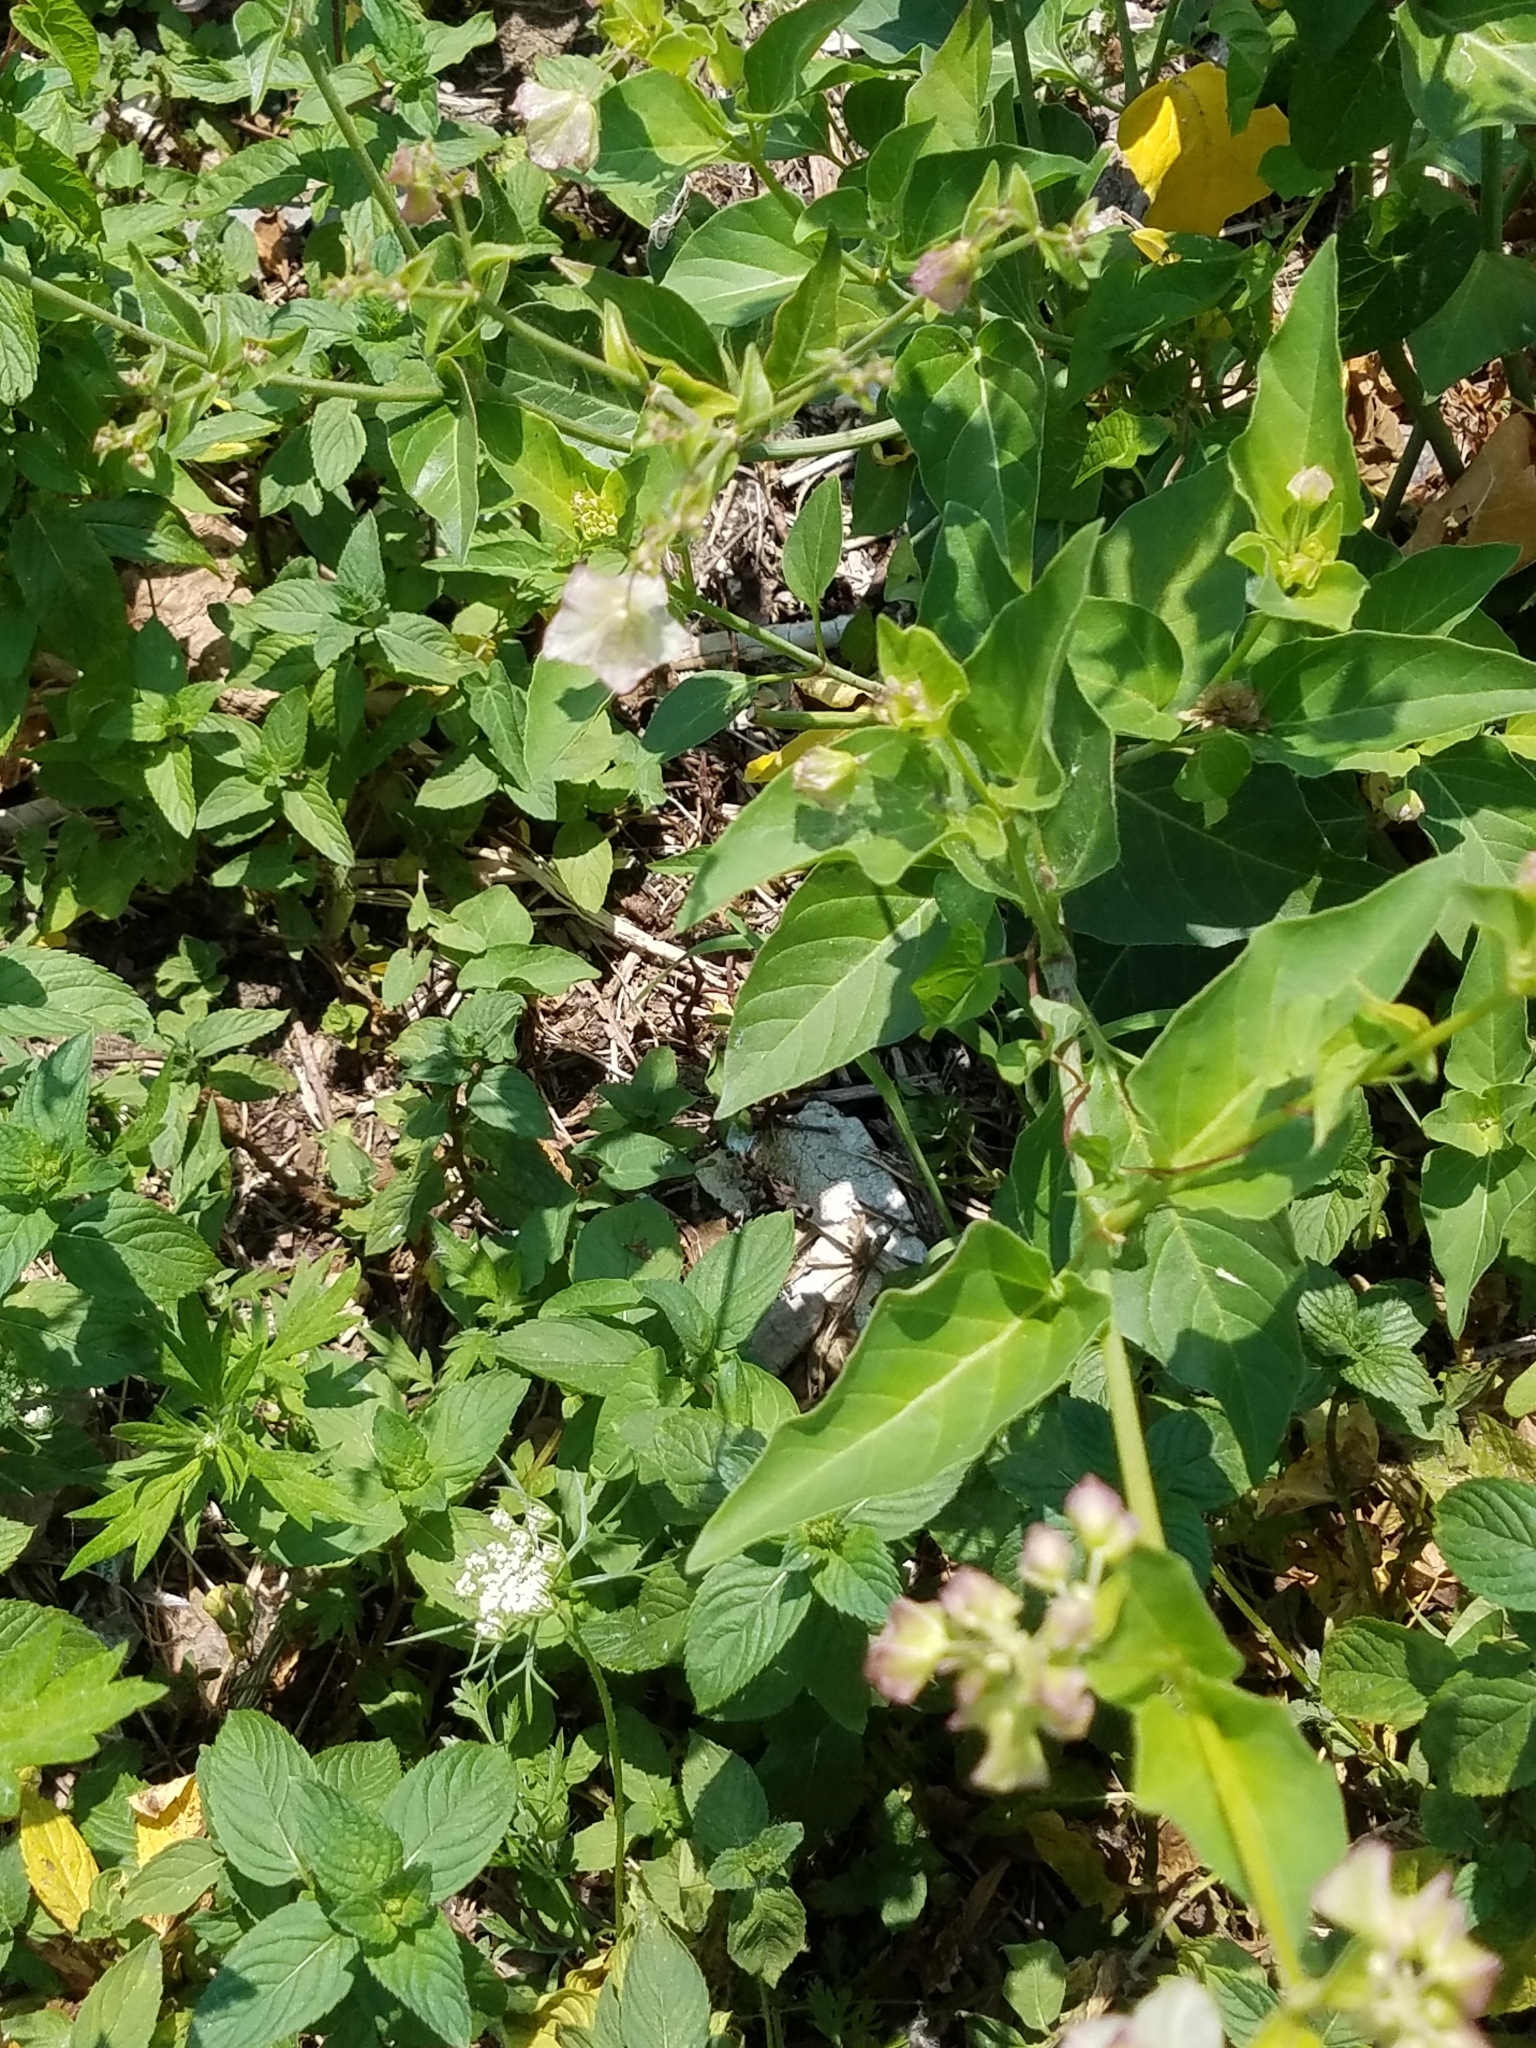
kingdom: Plantae
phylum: Tracheophyta
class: Magnoliopsida
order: Caryophyllales
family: Nyctaginaceae
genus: Mirabilis
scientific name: Mirabilis nyctaginea
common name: Umbrella wort
